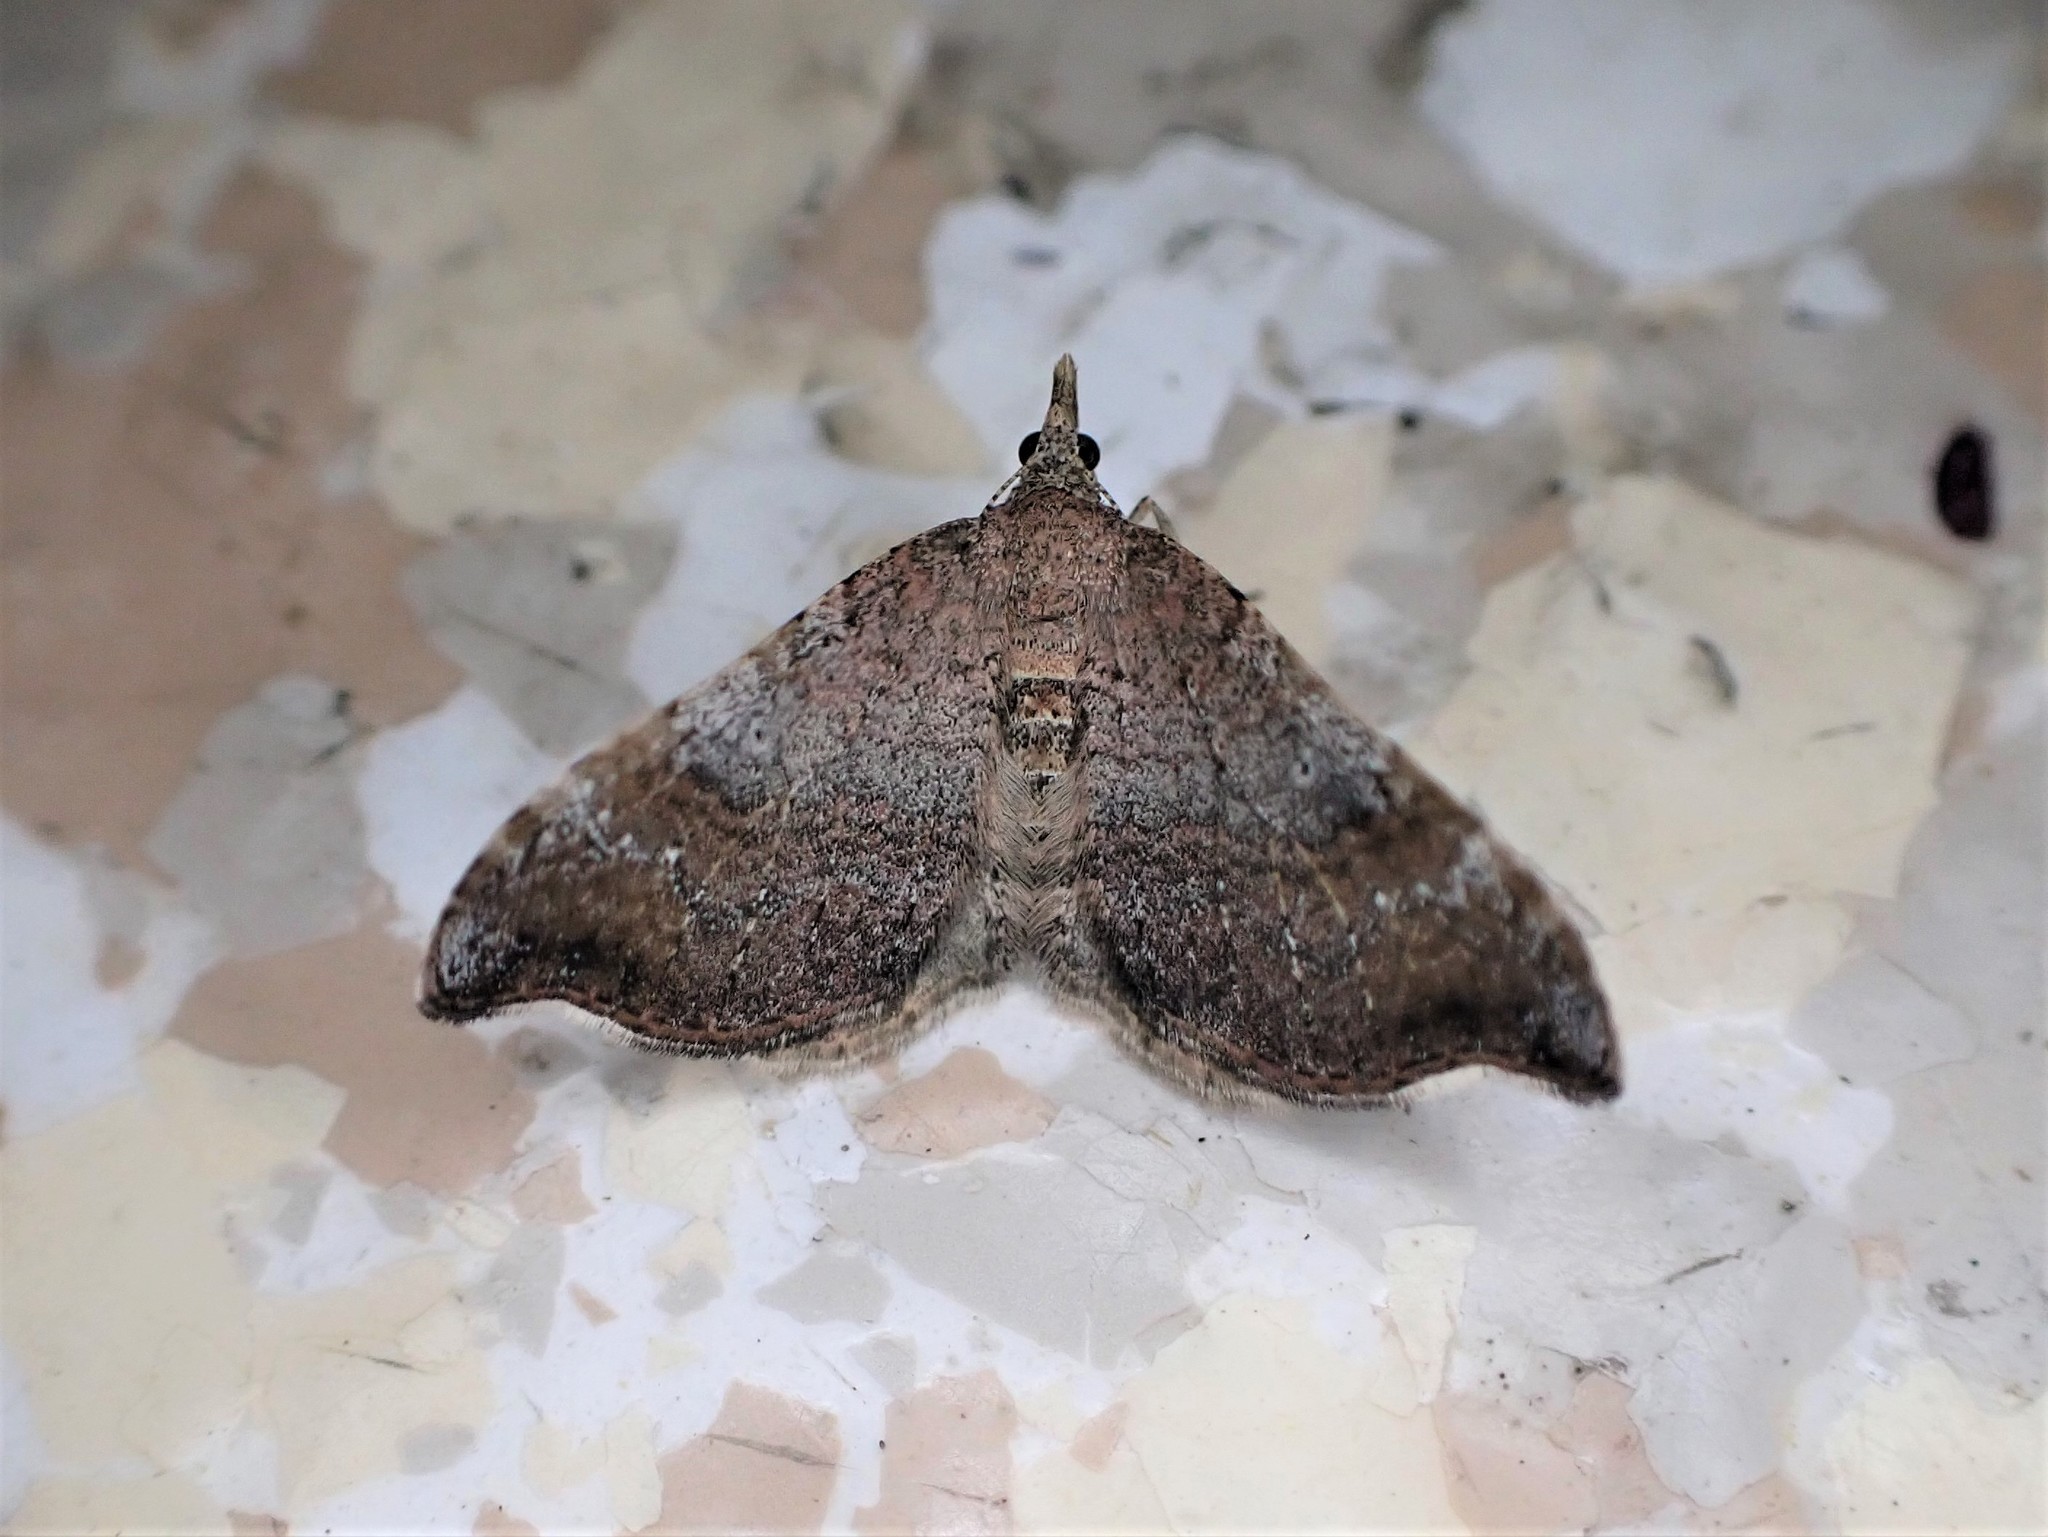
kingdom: Animalia
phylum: Arthropoda
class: Insecta
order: Lepidoptera
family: Geometridae
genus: Homodotis
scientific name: Homodotis megaspilata
